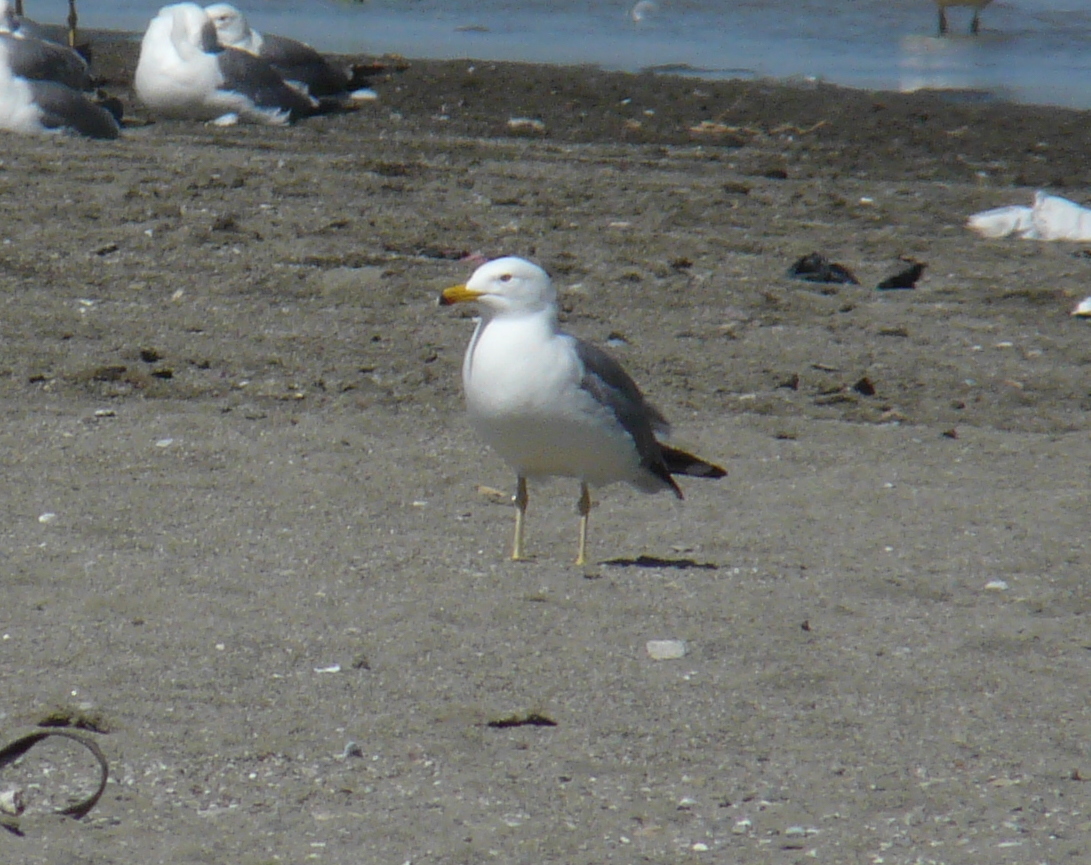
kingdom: Animalia
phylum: Chordata
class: Aves
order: Charadriiformes
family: Laridae
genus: Larus
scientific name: Larus armenicus
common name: Armenian gull
